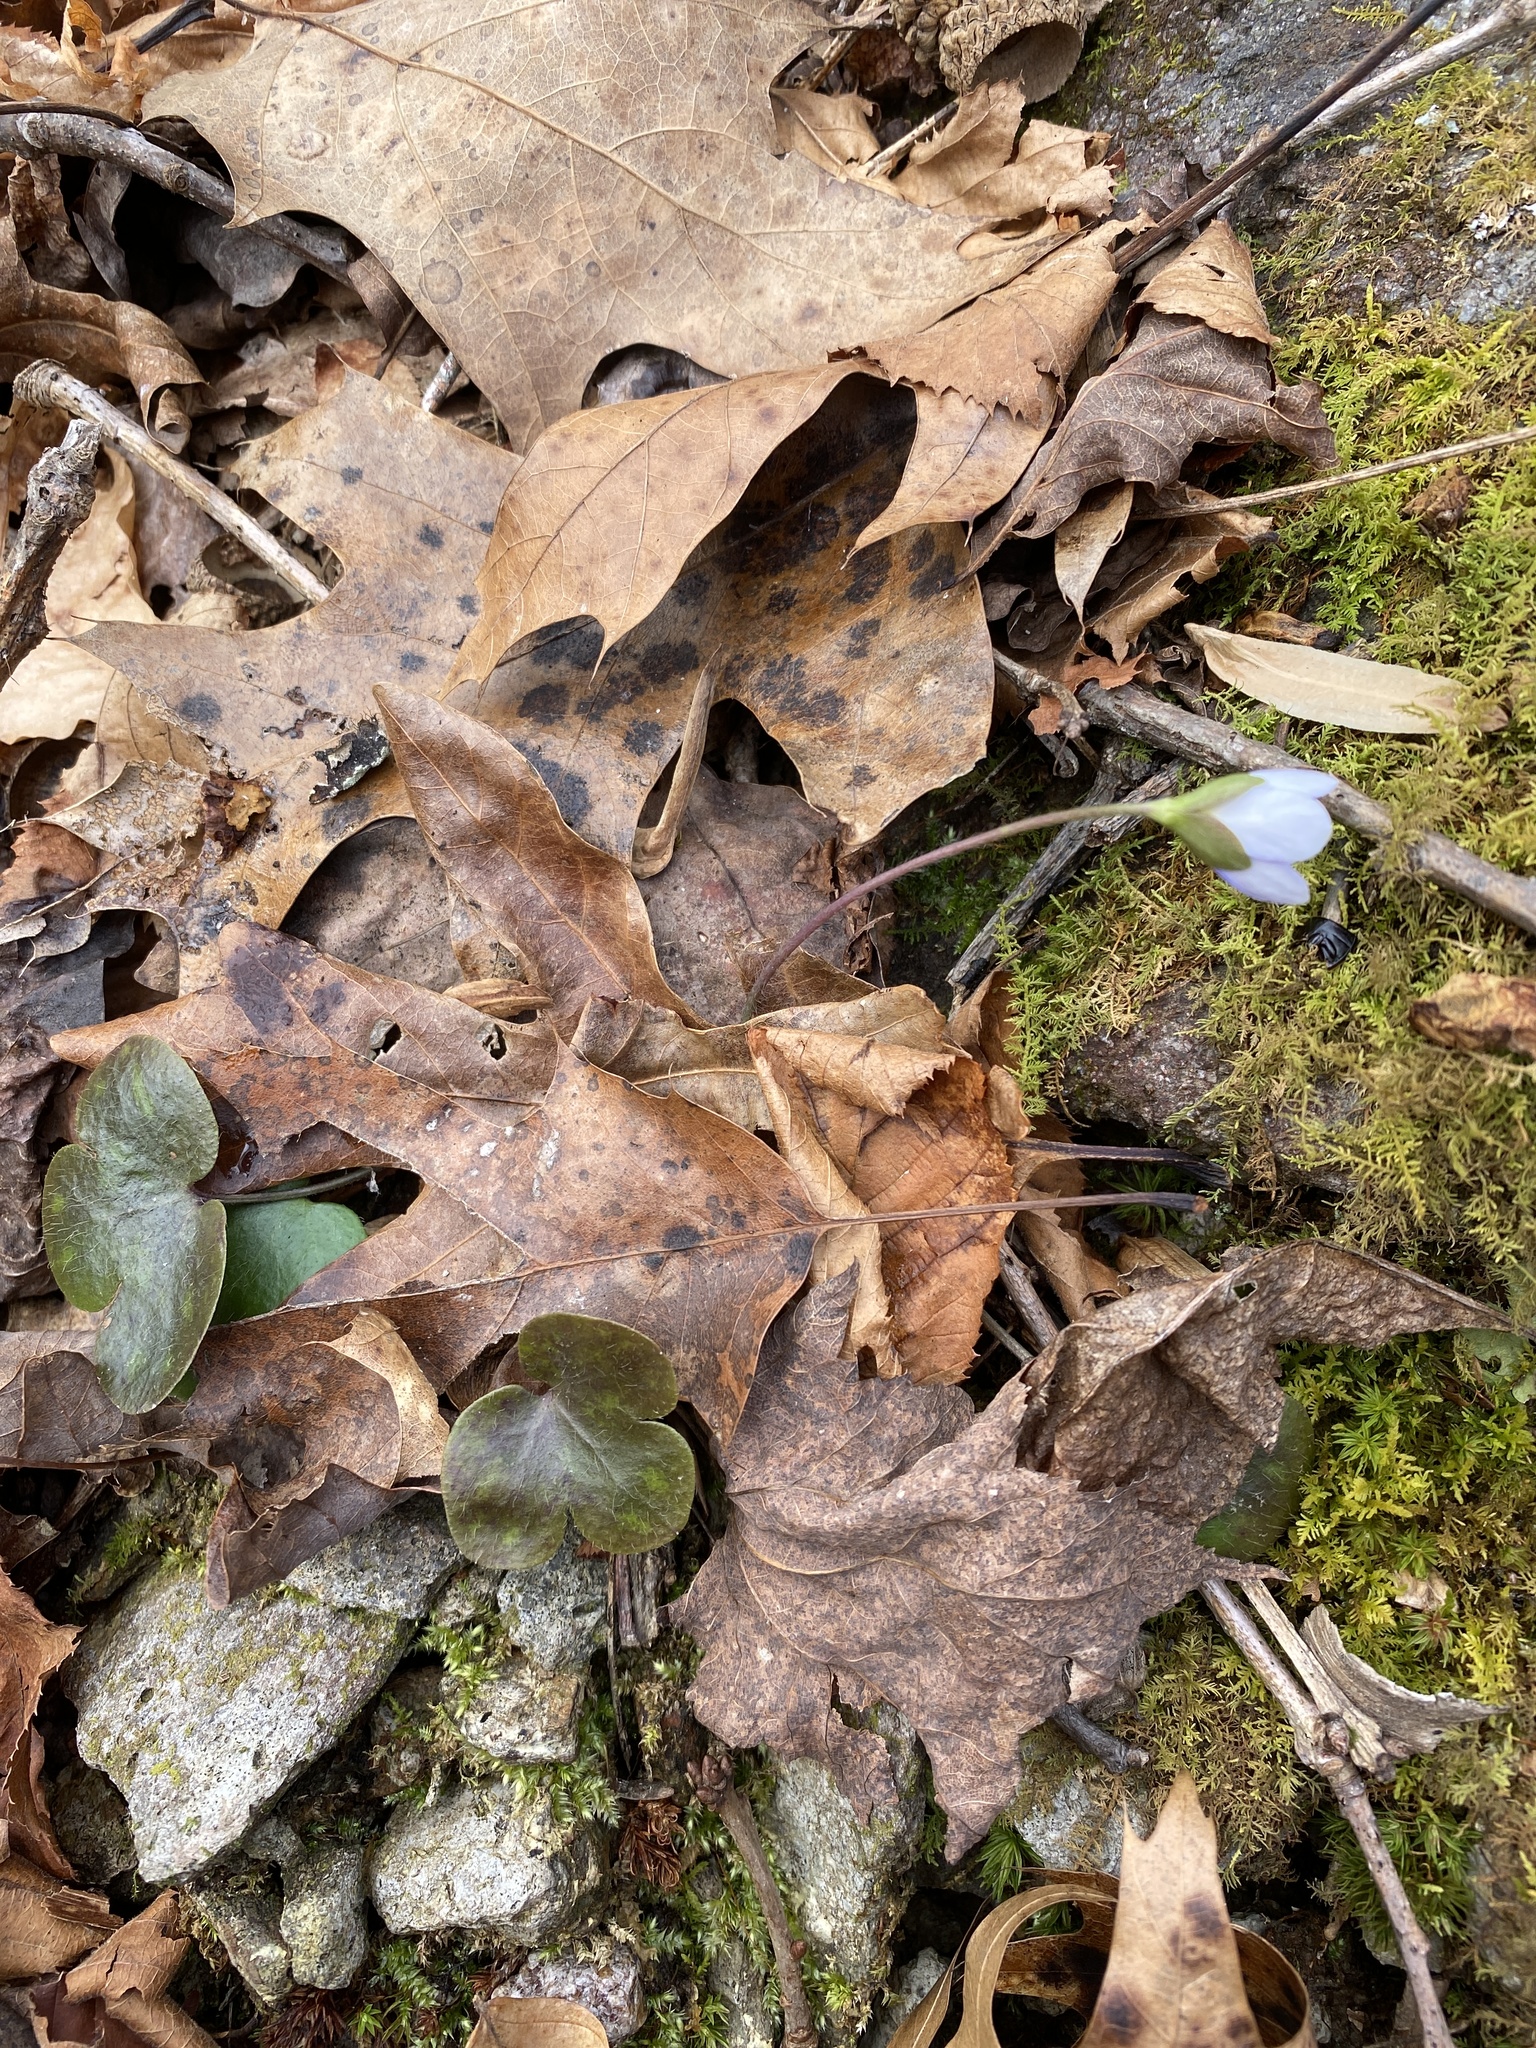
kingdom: Plantae
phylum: Tracheophyta
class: Magnoliopsida
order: Ranunculales
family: Ranunculaceae
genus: Hepatica
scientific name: Hepatica americana
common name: American hepatica
